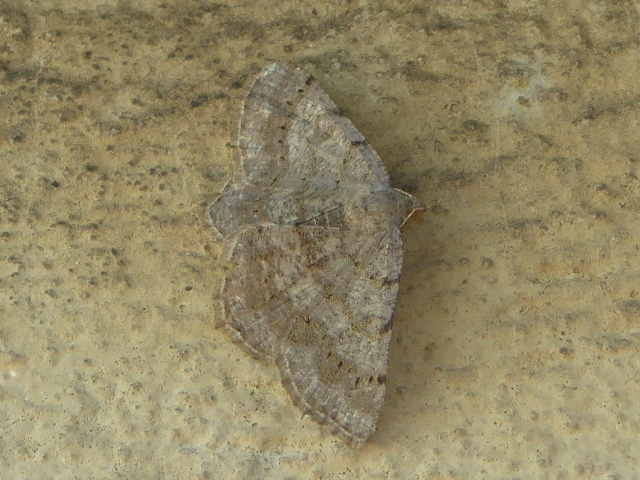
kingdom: Animalia
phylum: Arthropoda
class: Insecta
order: Lepidoptera
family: Geometridae
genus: Digrammia
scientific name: Digrammia ocellinata
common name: Faint-spotted angle
